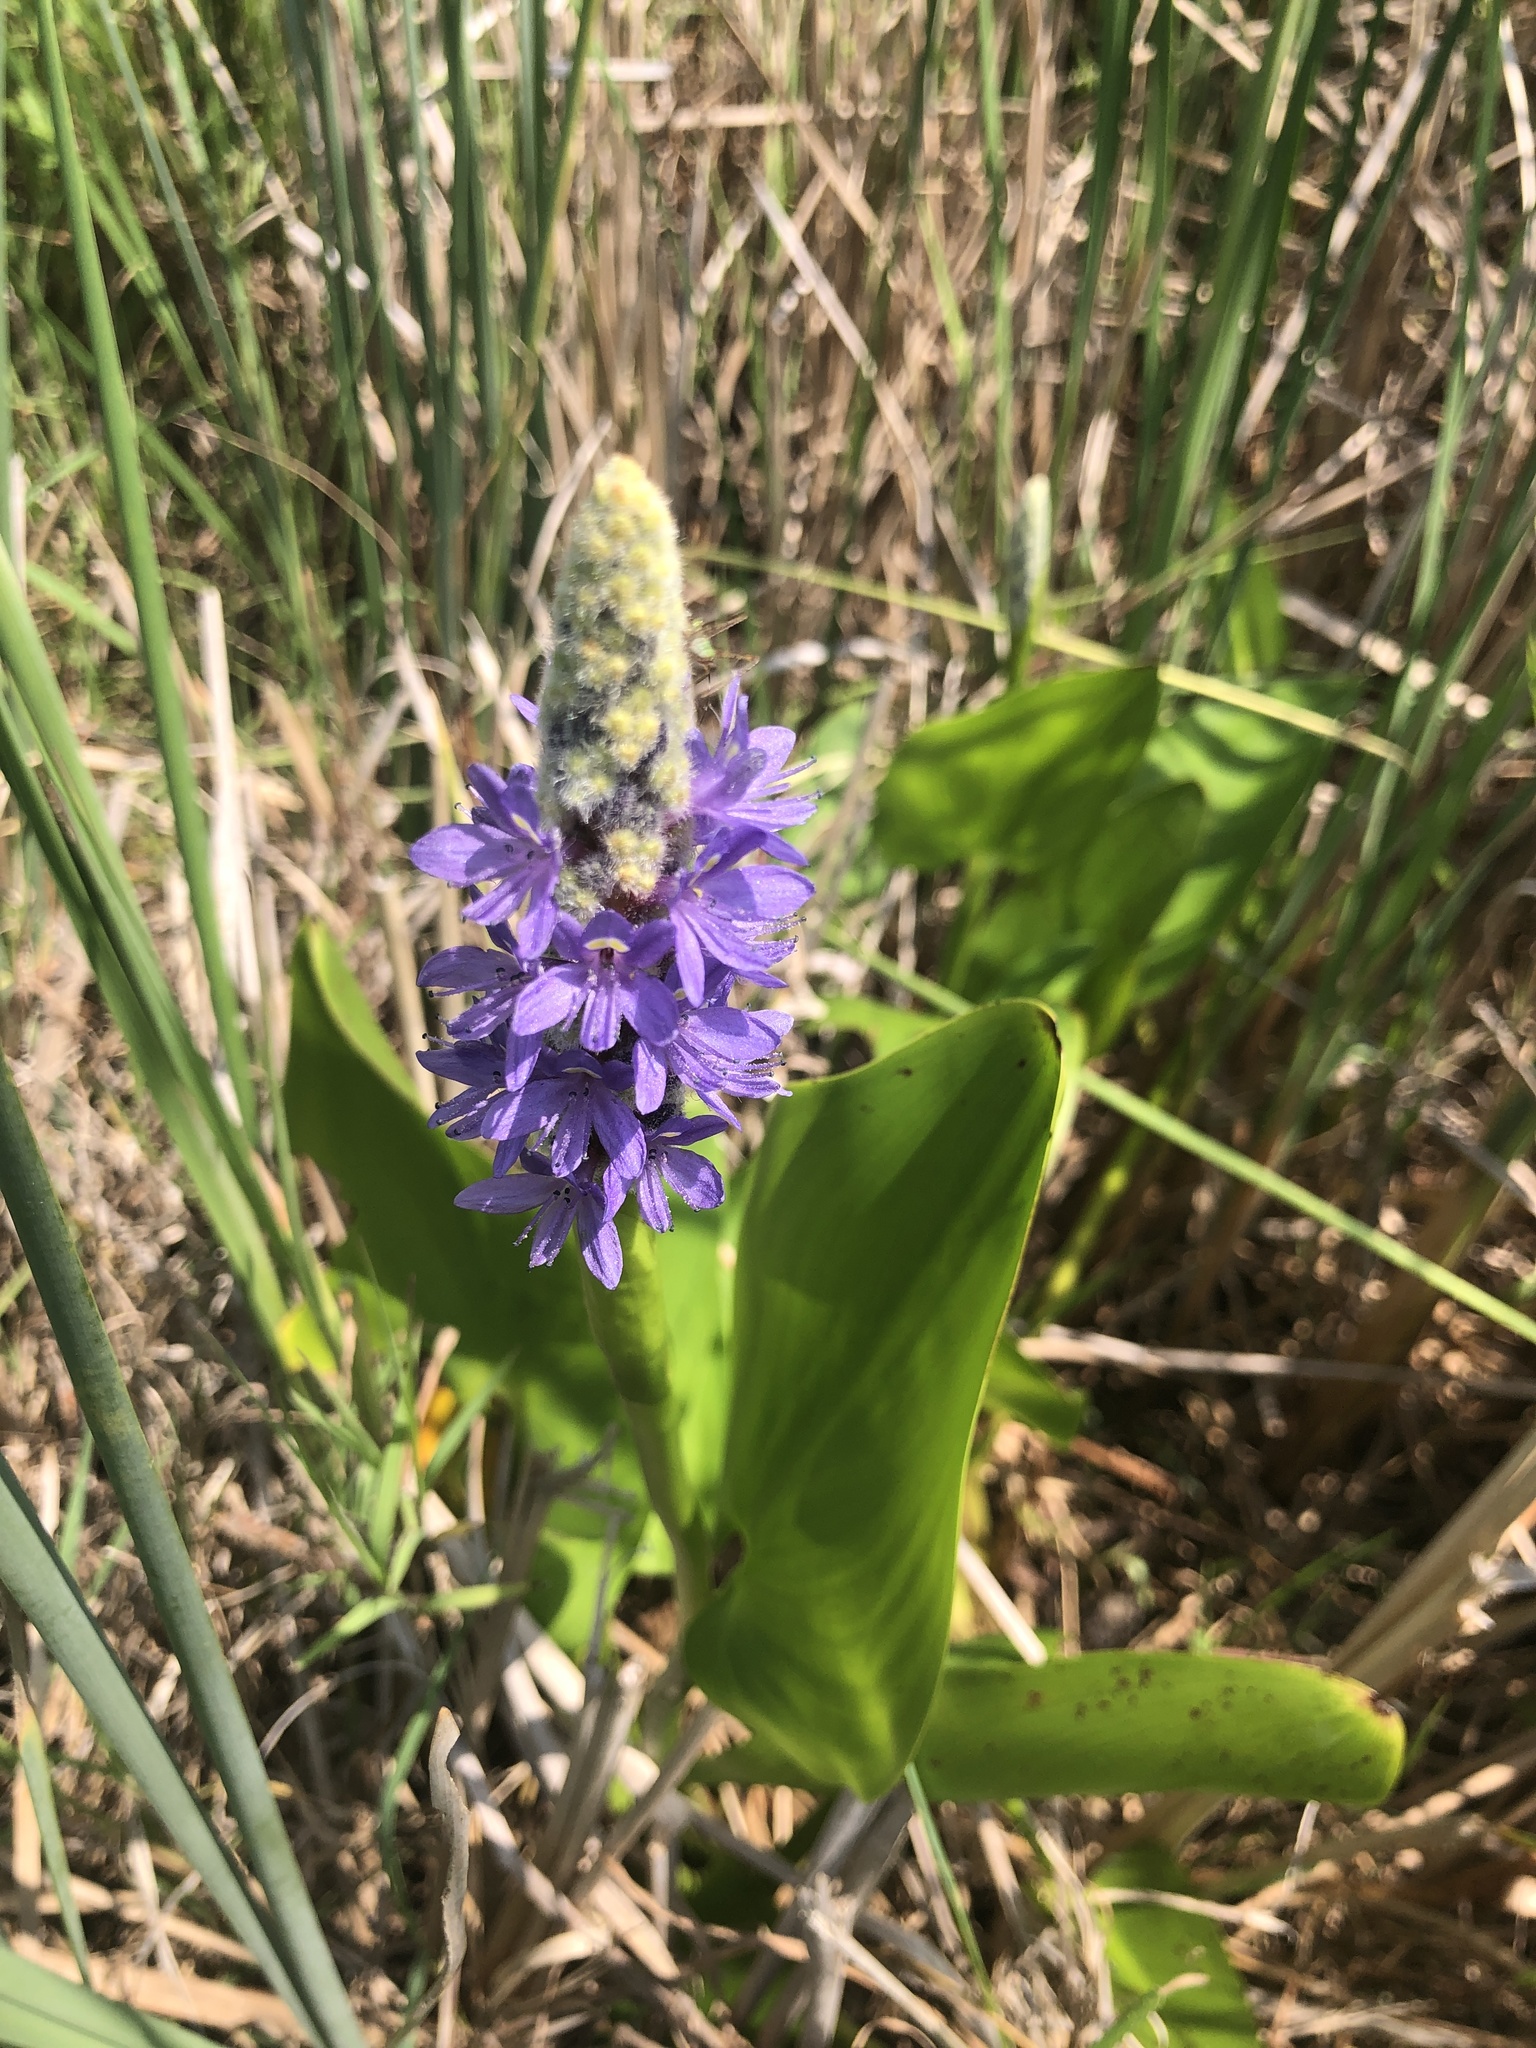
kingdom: Plantae
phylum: Tracheophyta
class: Liliopsida
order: Commelinales
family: Pontederiaceae
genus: Pontederia
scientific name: Pontederia cordata
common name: Pickerelweed
